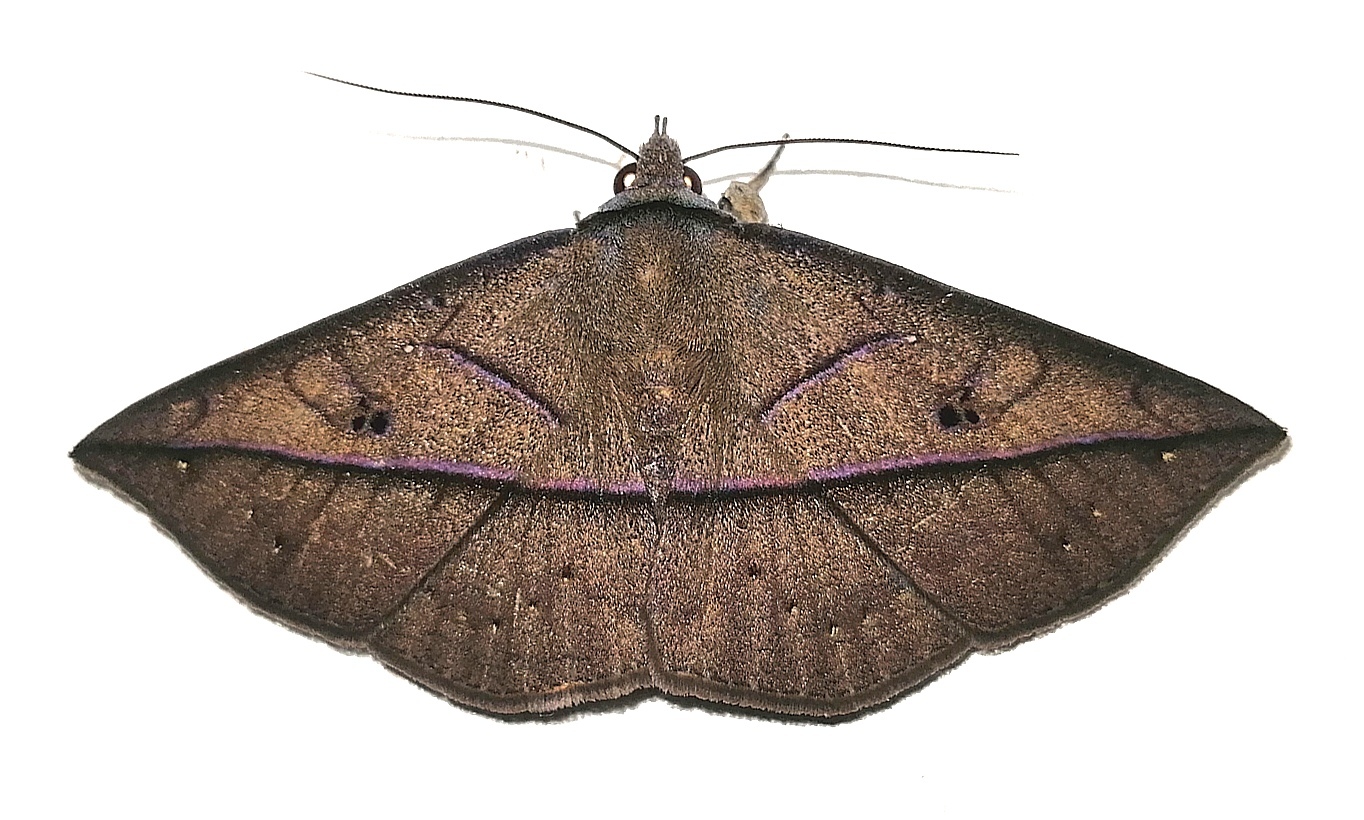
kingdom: Animalia
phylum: Arthropoda
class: Insecta
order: Lepidoptera
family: Erebidae
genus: Sanys
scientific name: Sanys terranea
